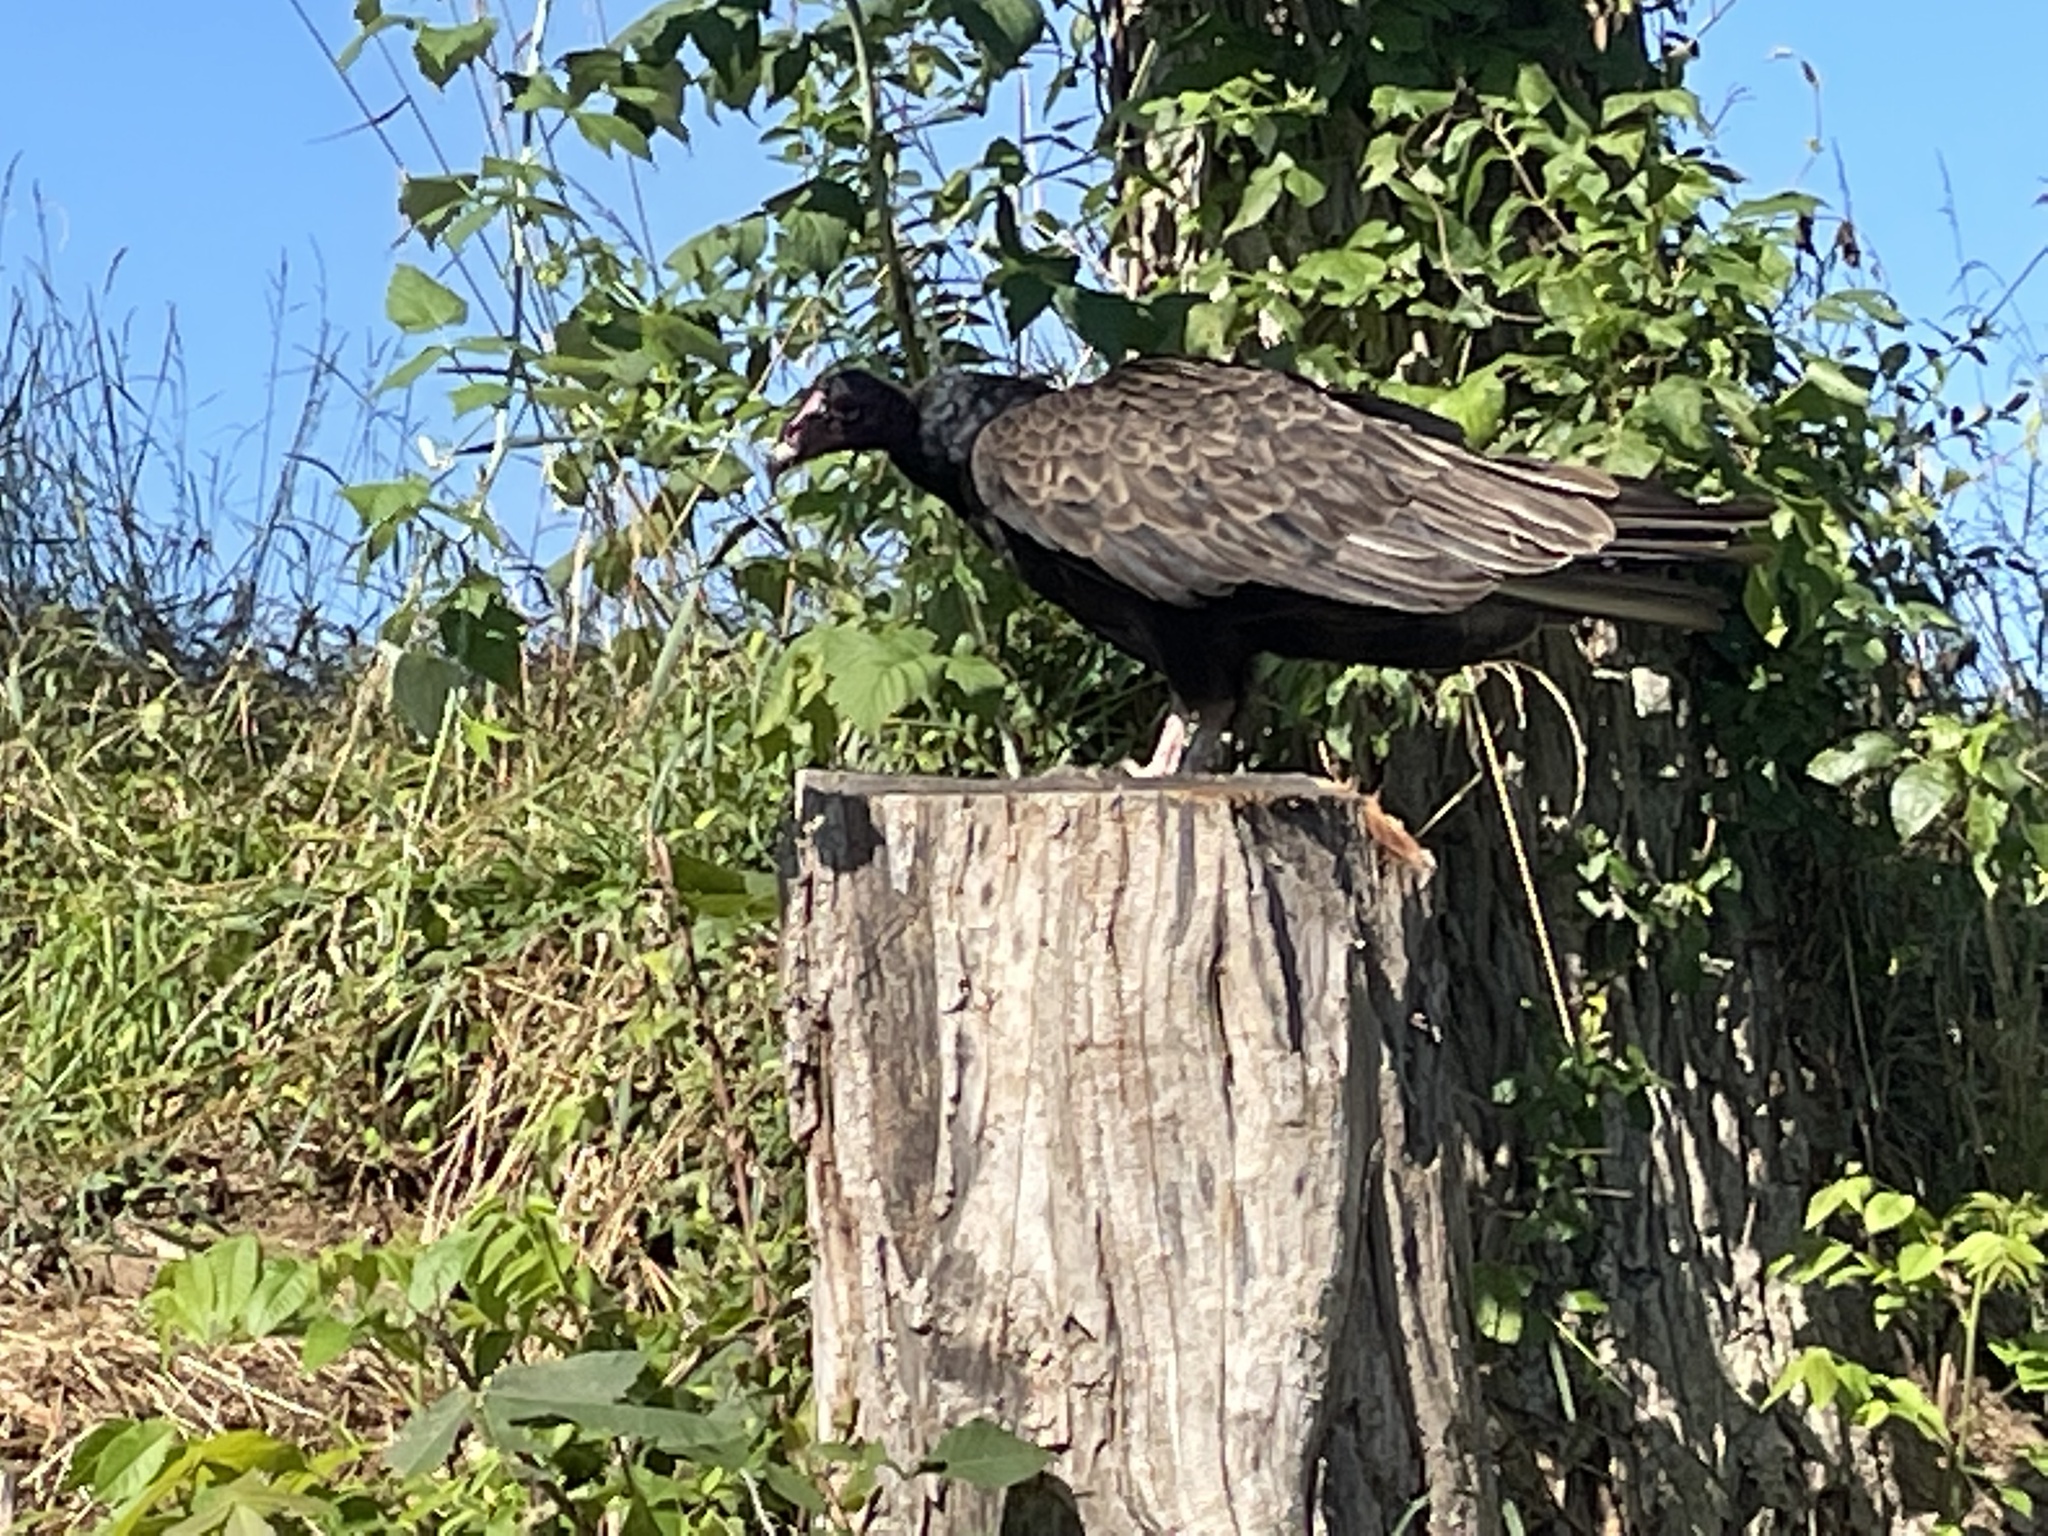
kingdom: Animalia
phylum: Chordata
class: Aves
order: Accipitriformes
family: Cathartidae
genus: Cathartes
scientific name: Cathartes aura
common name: Turkey vulture
